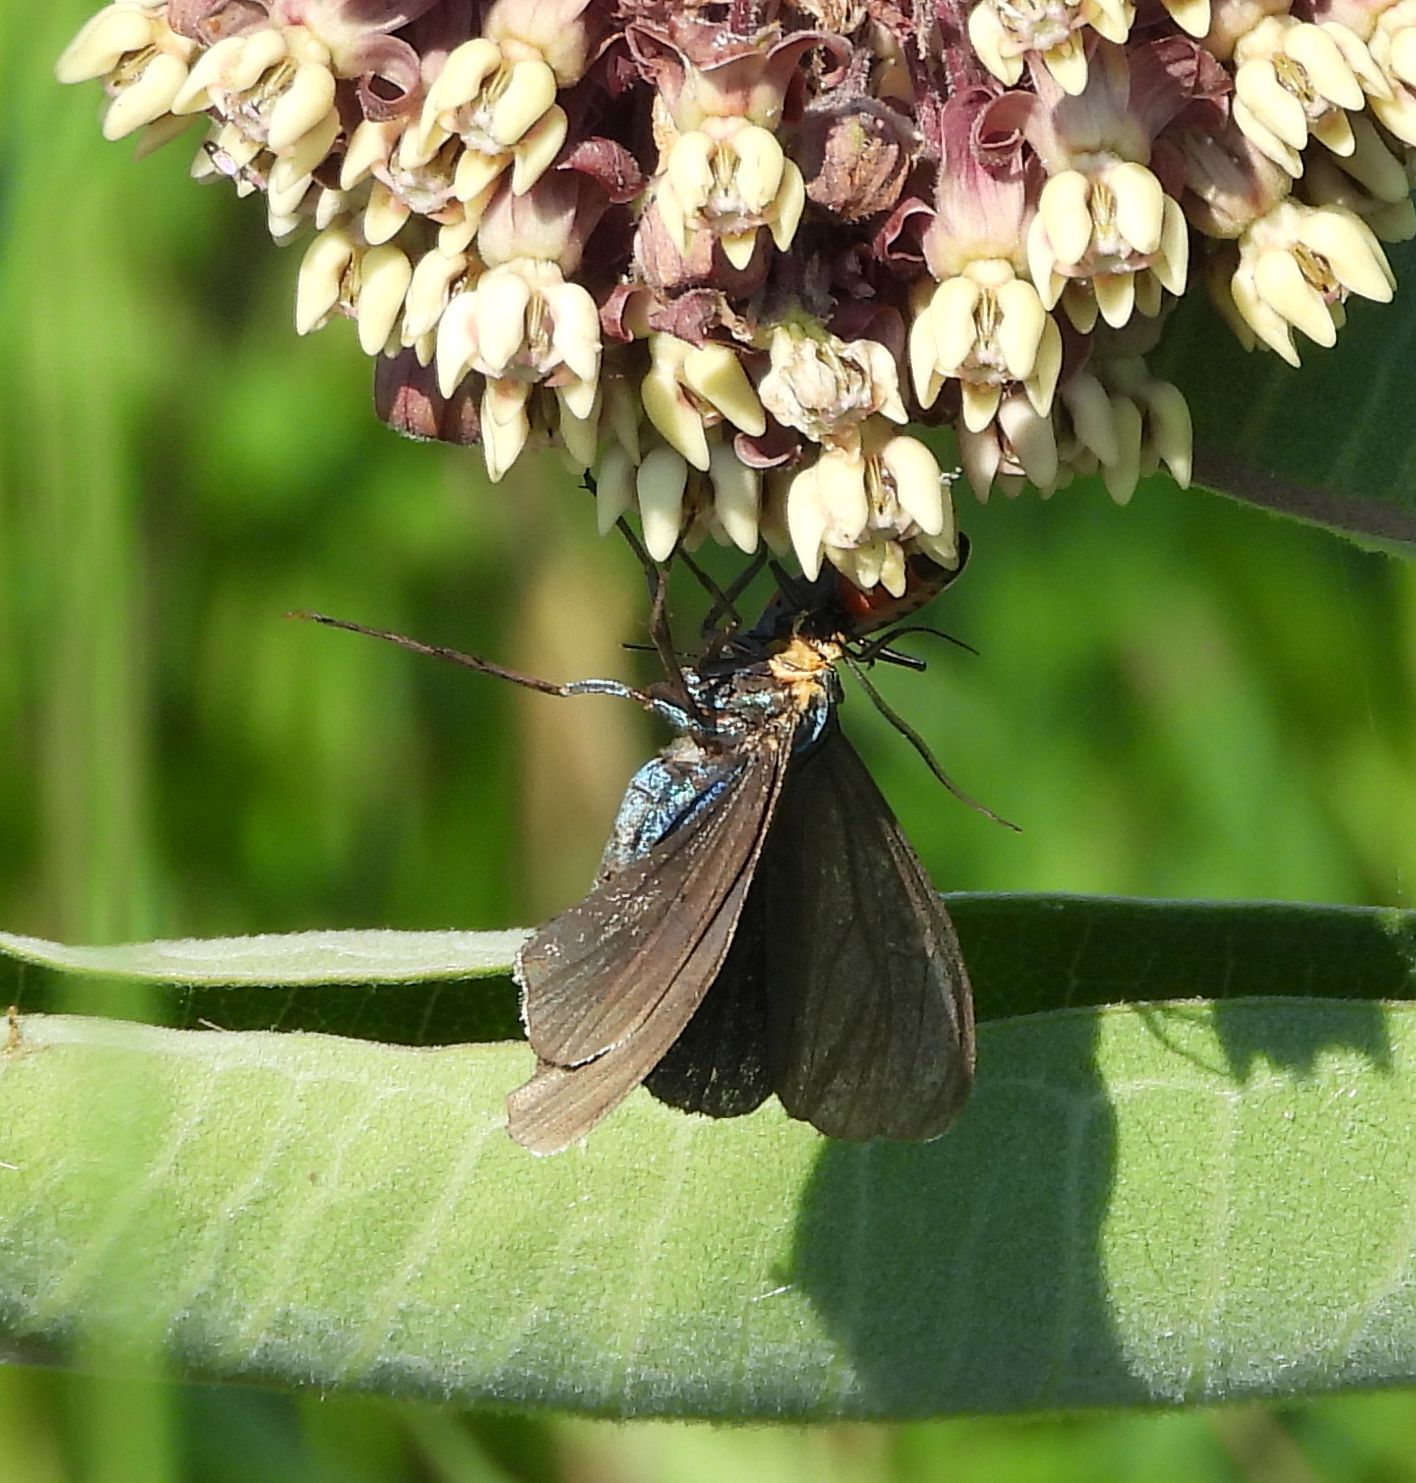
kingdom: Animalia
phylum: Arthropoda
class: Insecta
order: Lepidoptera
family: Erebidae
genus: Ctenucha
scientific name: Ctenucha virginica
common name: Virginia ctenucha moth
